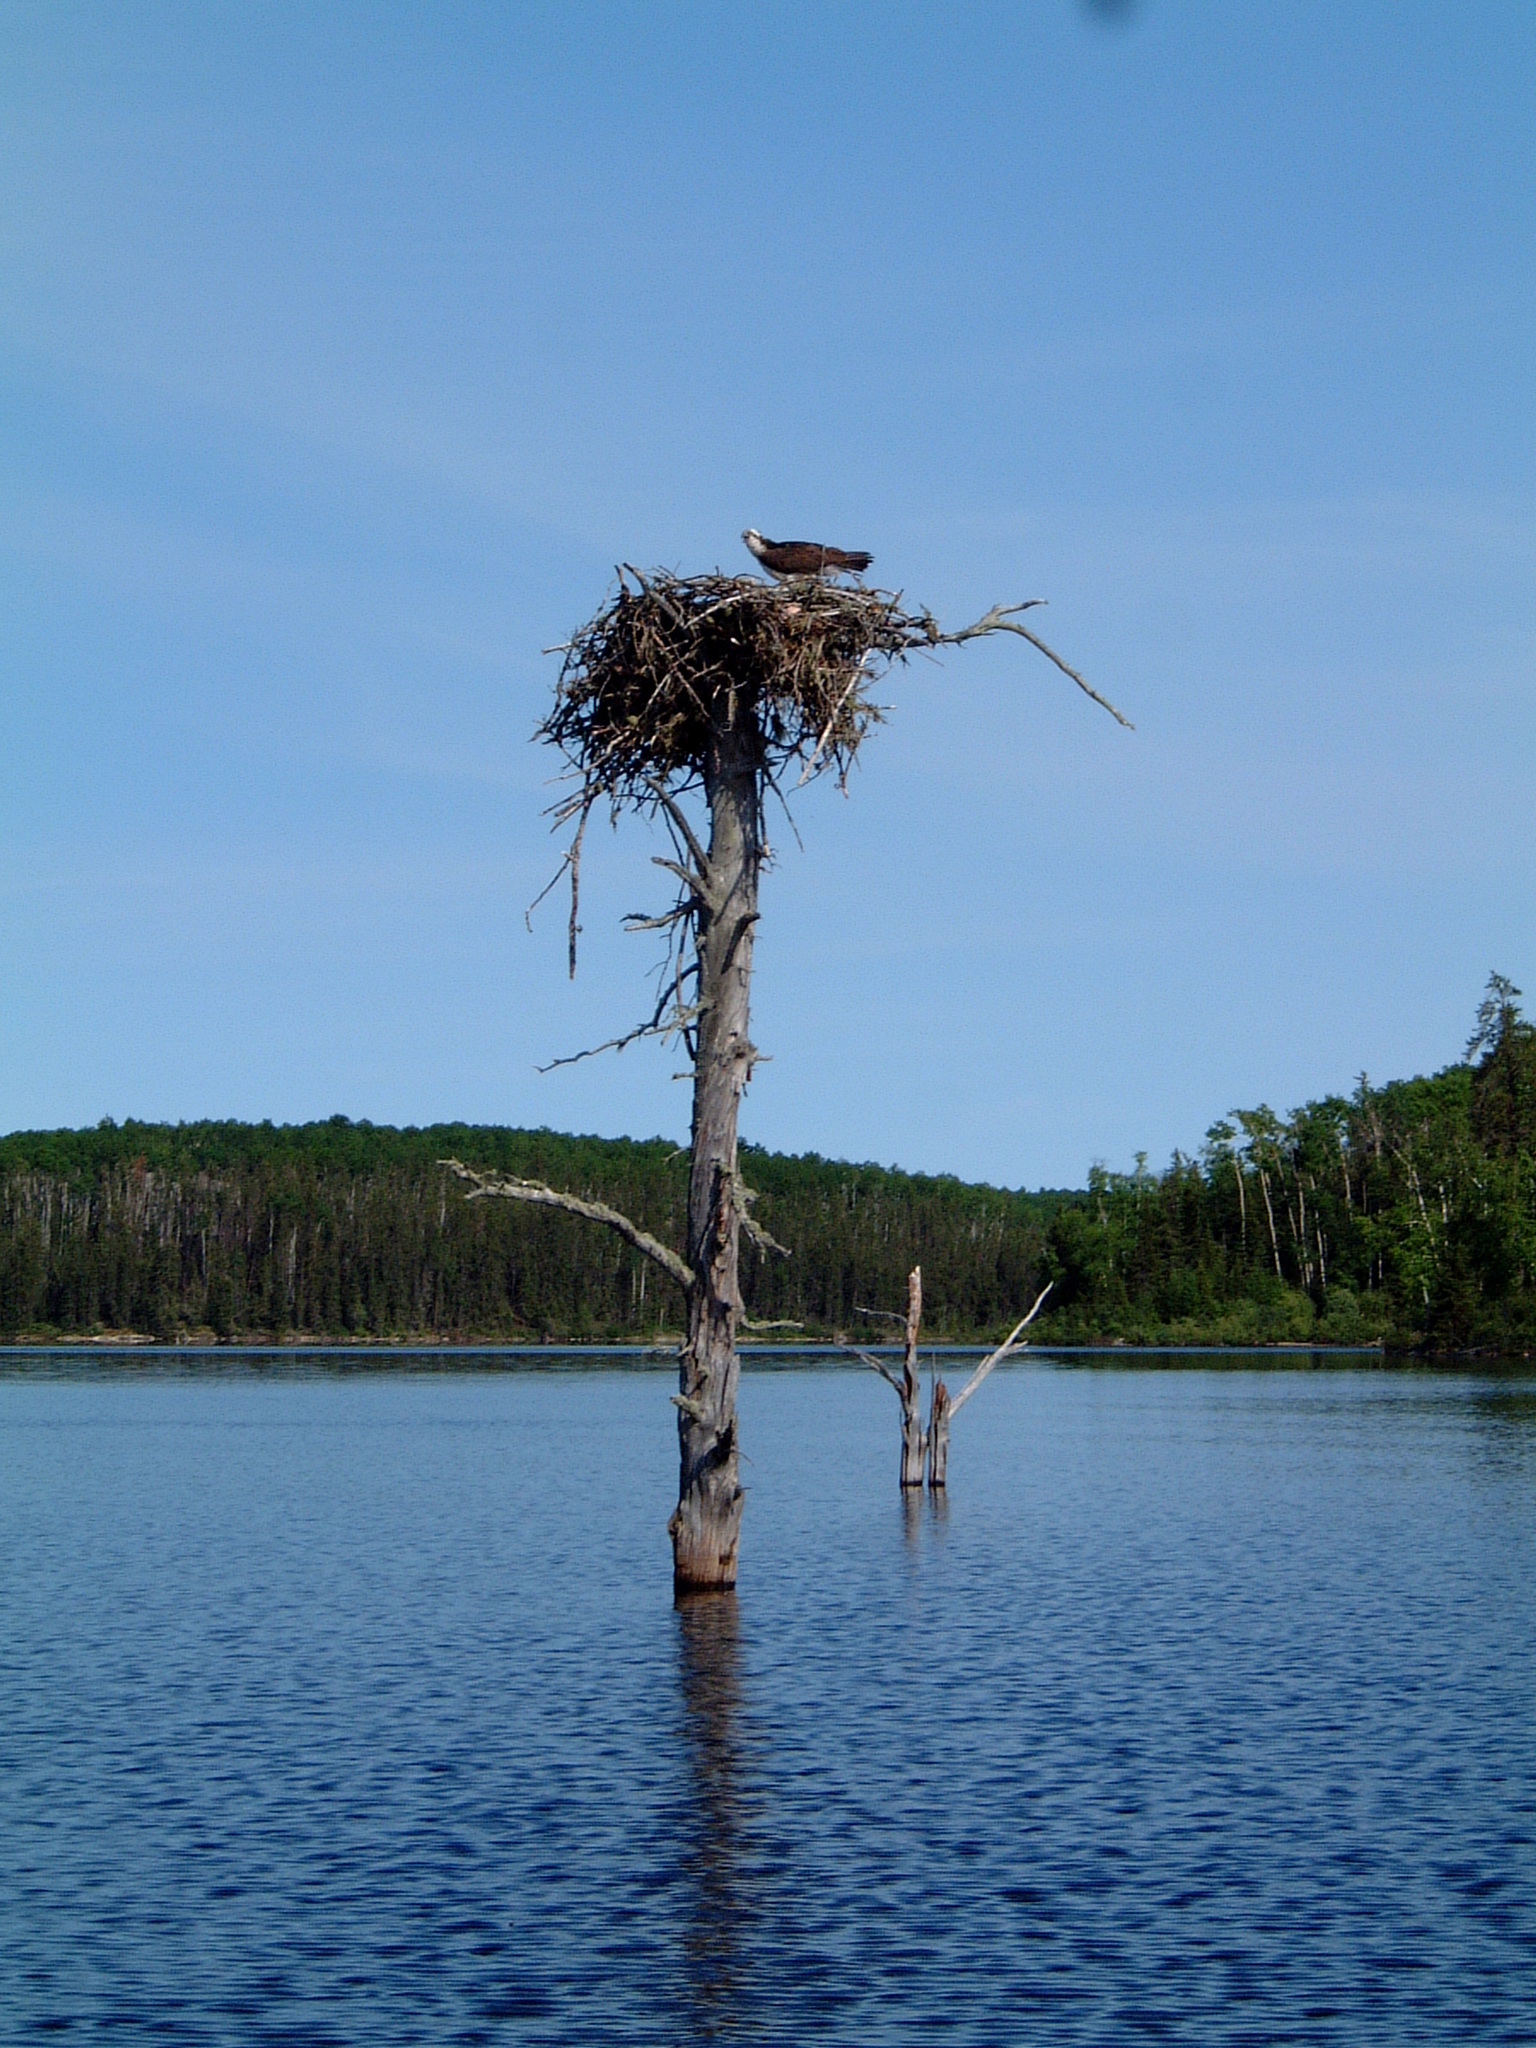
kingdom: Animalia
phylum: Chordata
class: Aves
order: Accipitriformes
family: Pandionidae
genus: Pandion
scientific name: Pandion haliaetus
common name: Osprey
